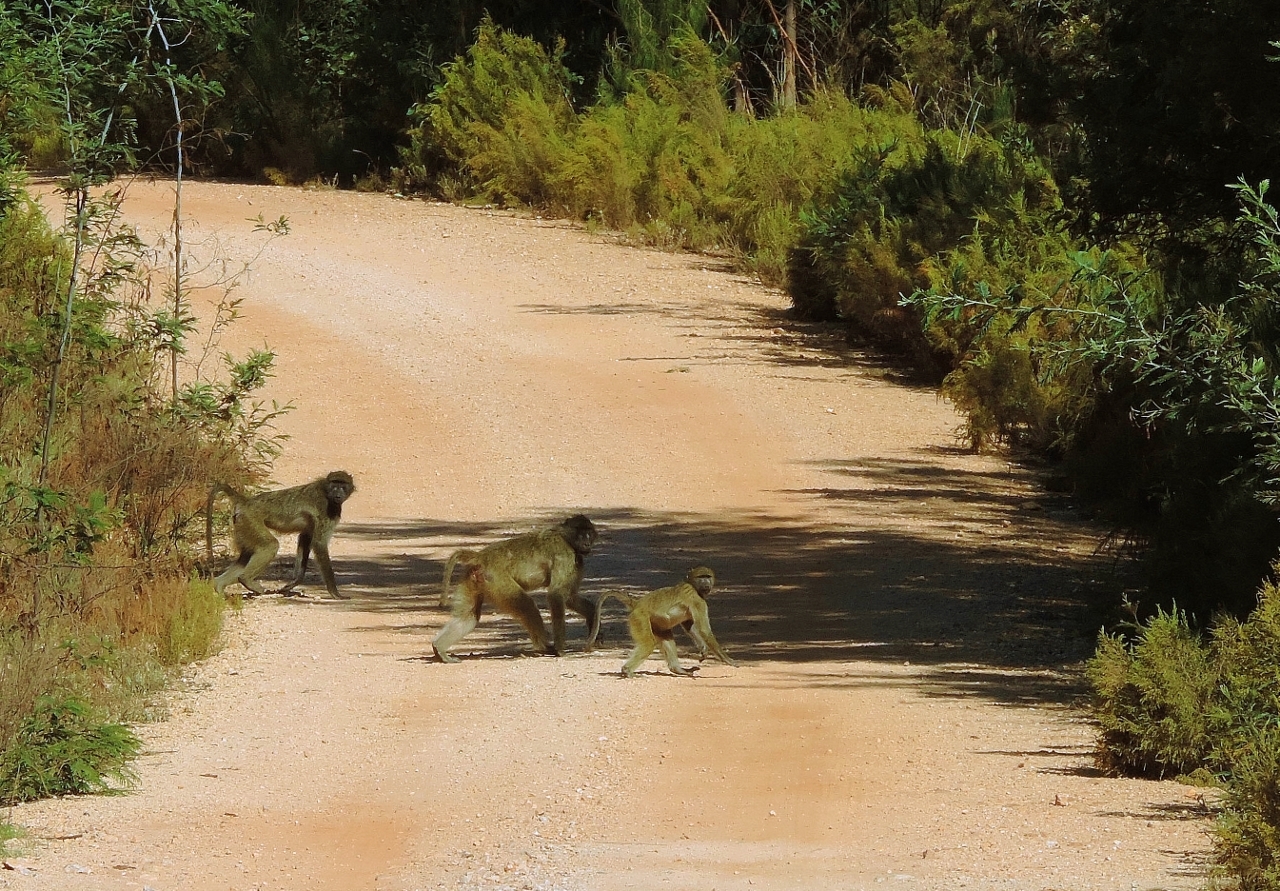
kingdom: Animalia
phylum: Chordata
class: Mammalia
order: Primates
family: Cercopithecidae
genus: Papio
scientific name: Papio ursinus
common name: Chacma baboon
